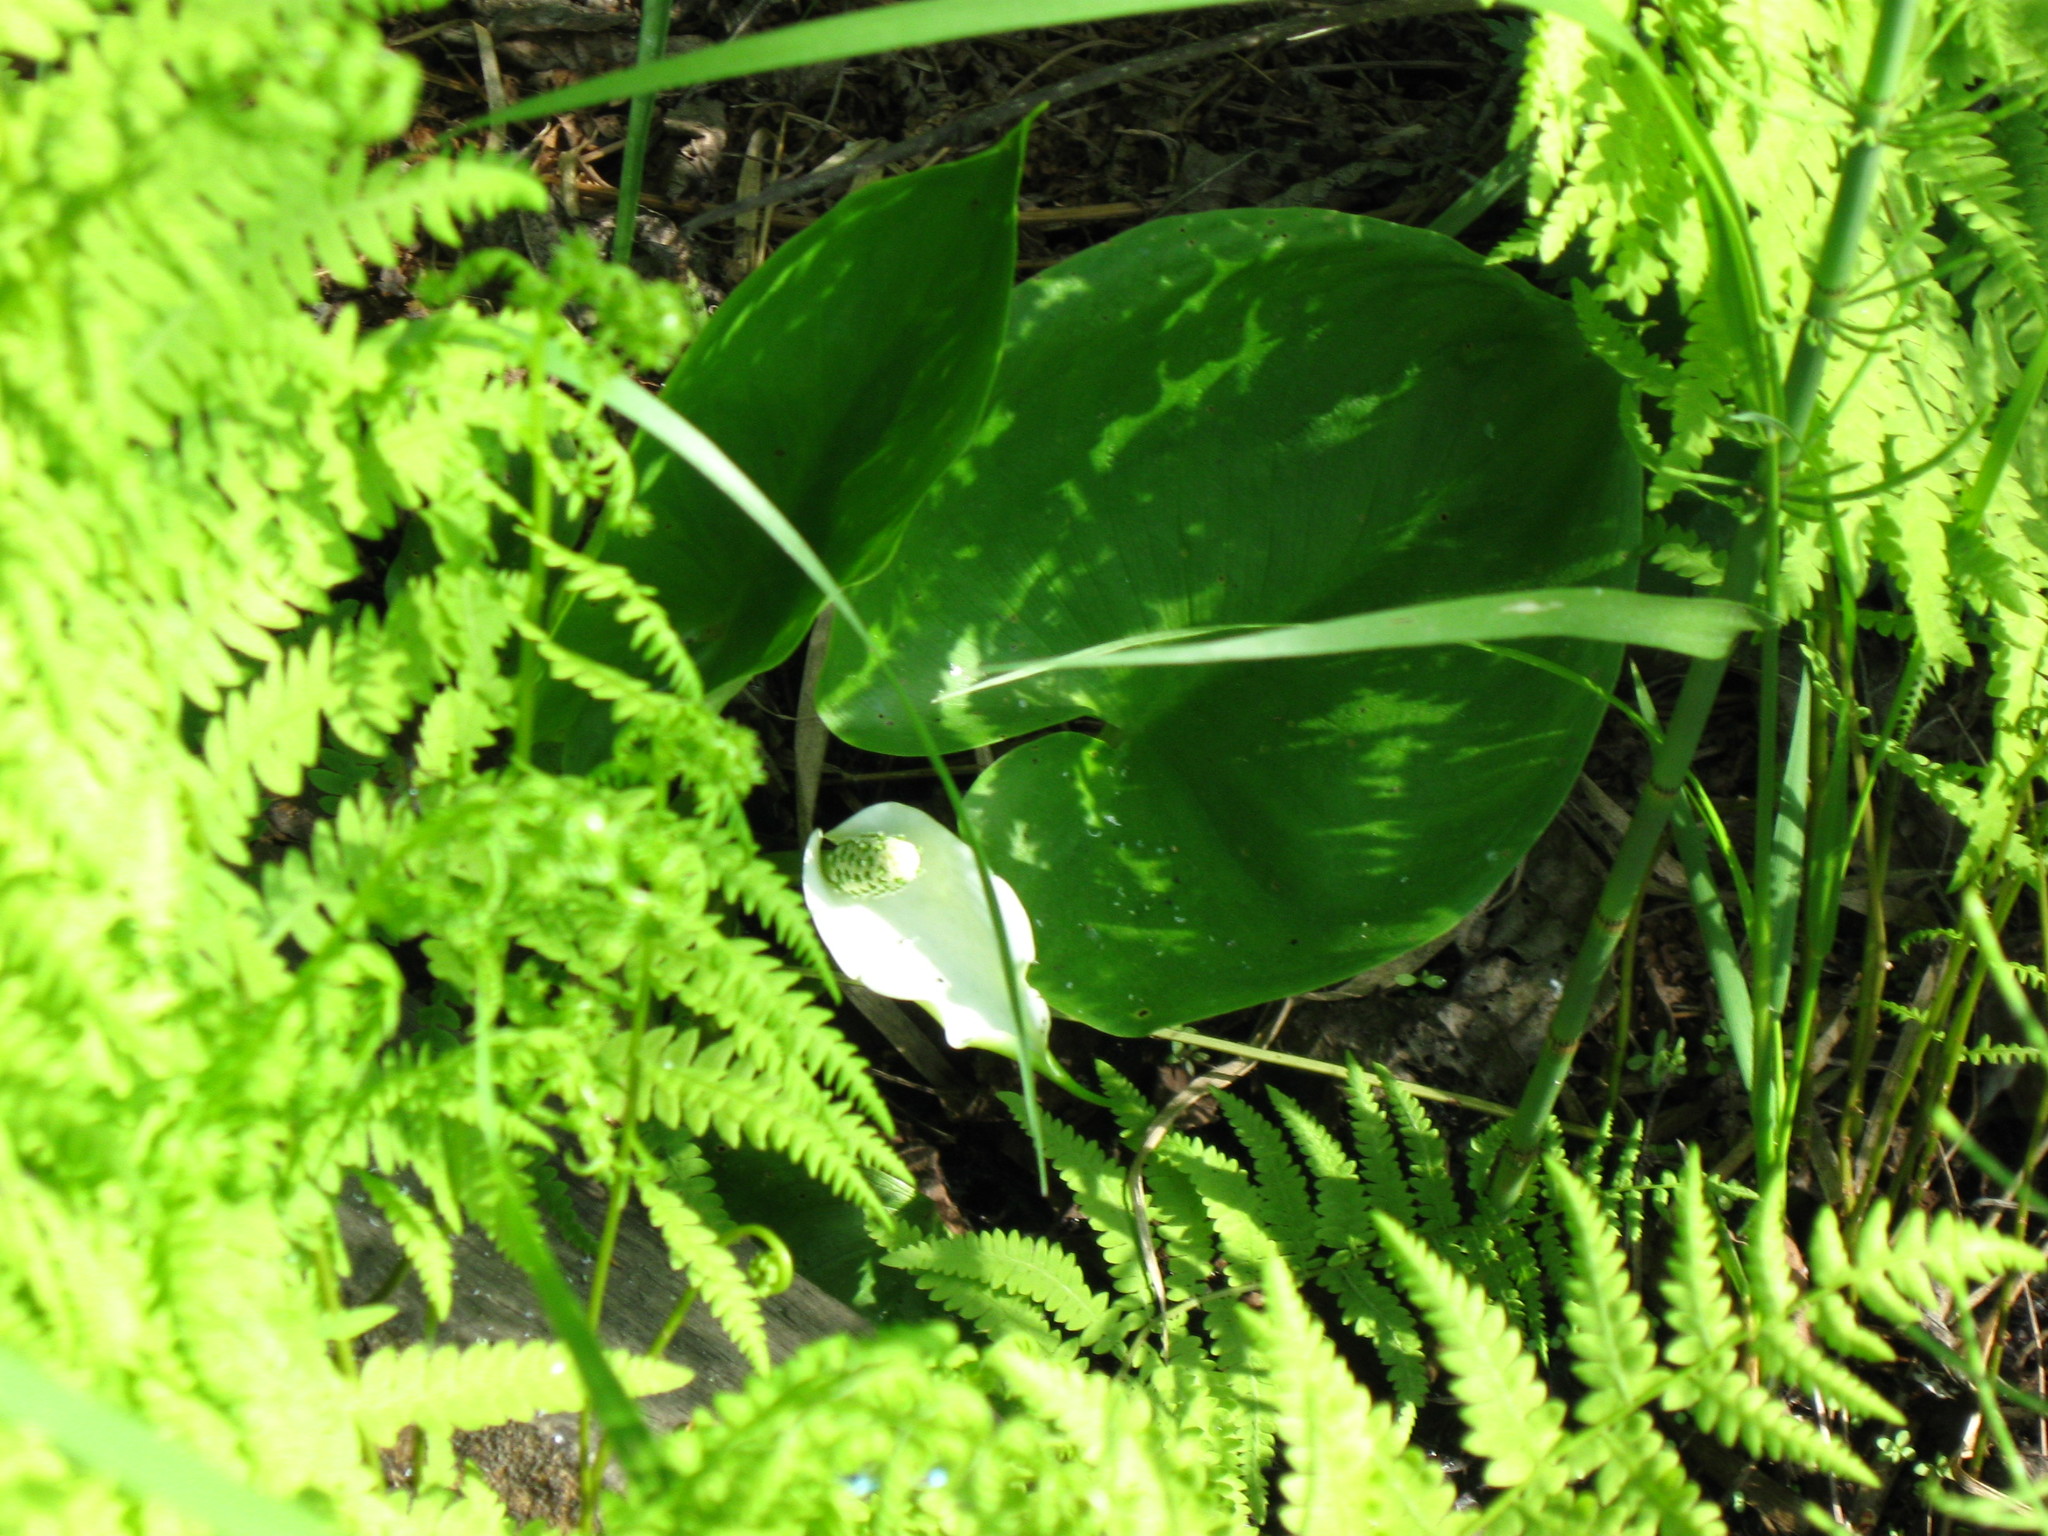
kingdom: Plantae
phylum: Tracheophyta
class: Liliopsida
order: Alismatales
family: Araceae
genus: Calla
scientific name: Calla palustris
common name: Bog arum
